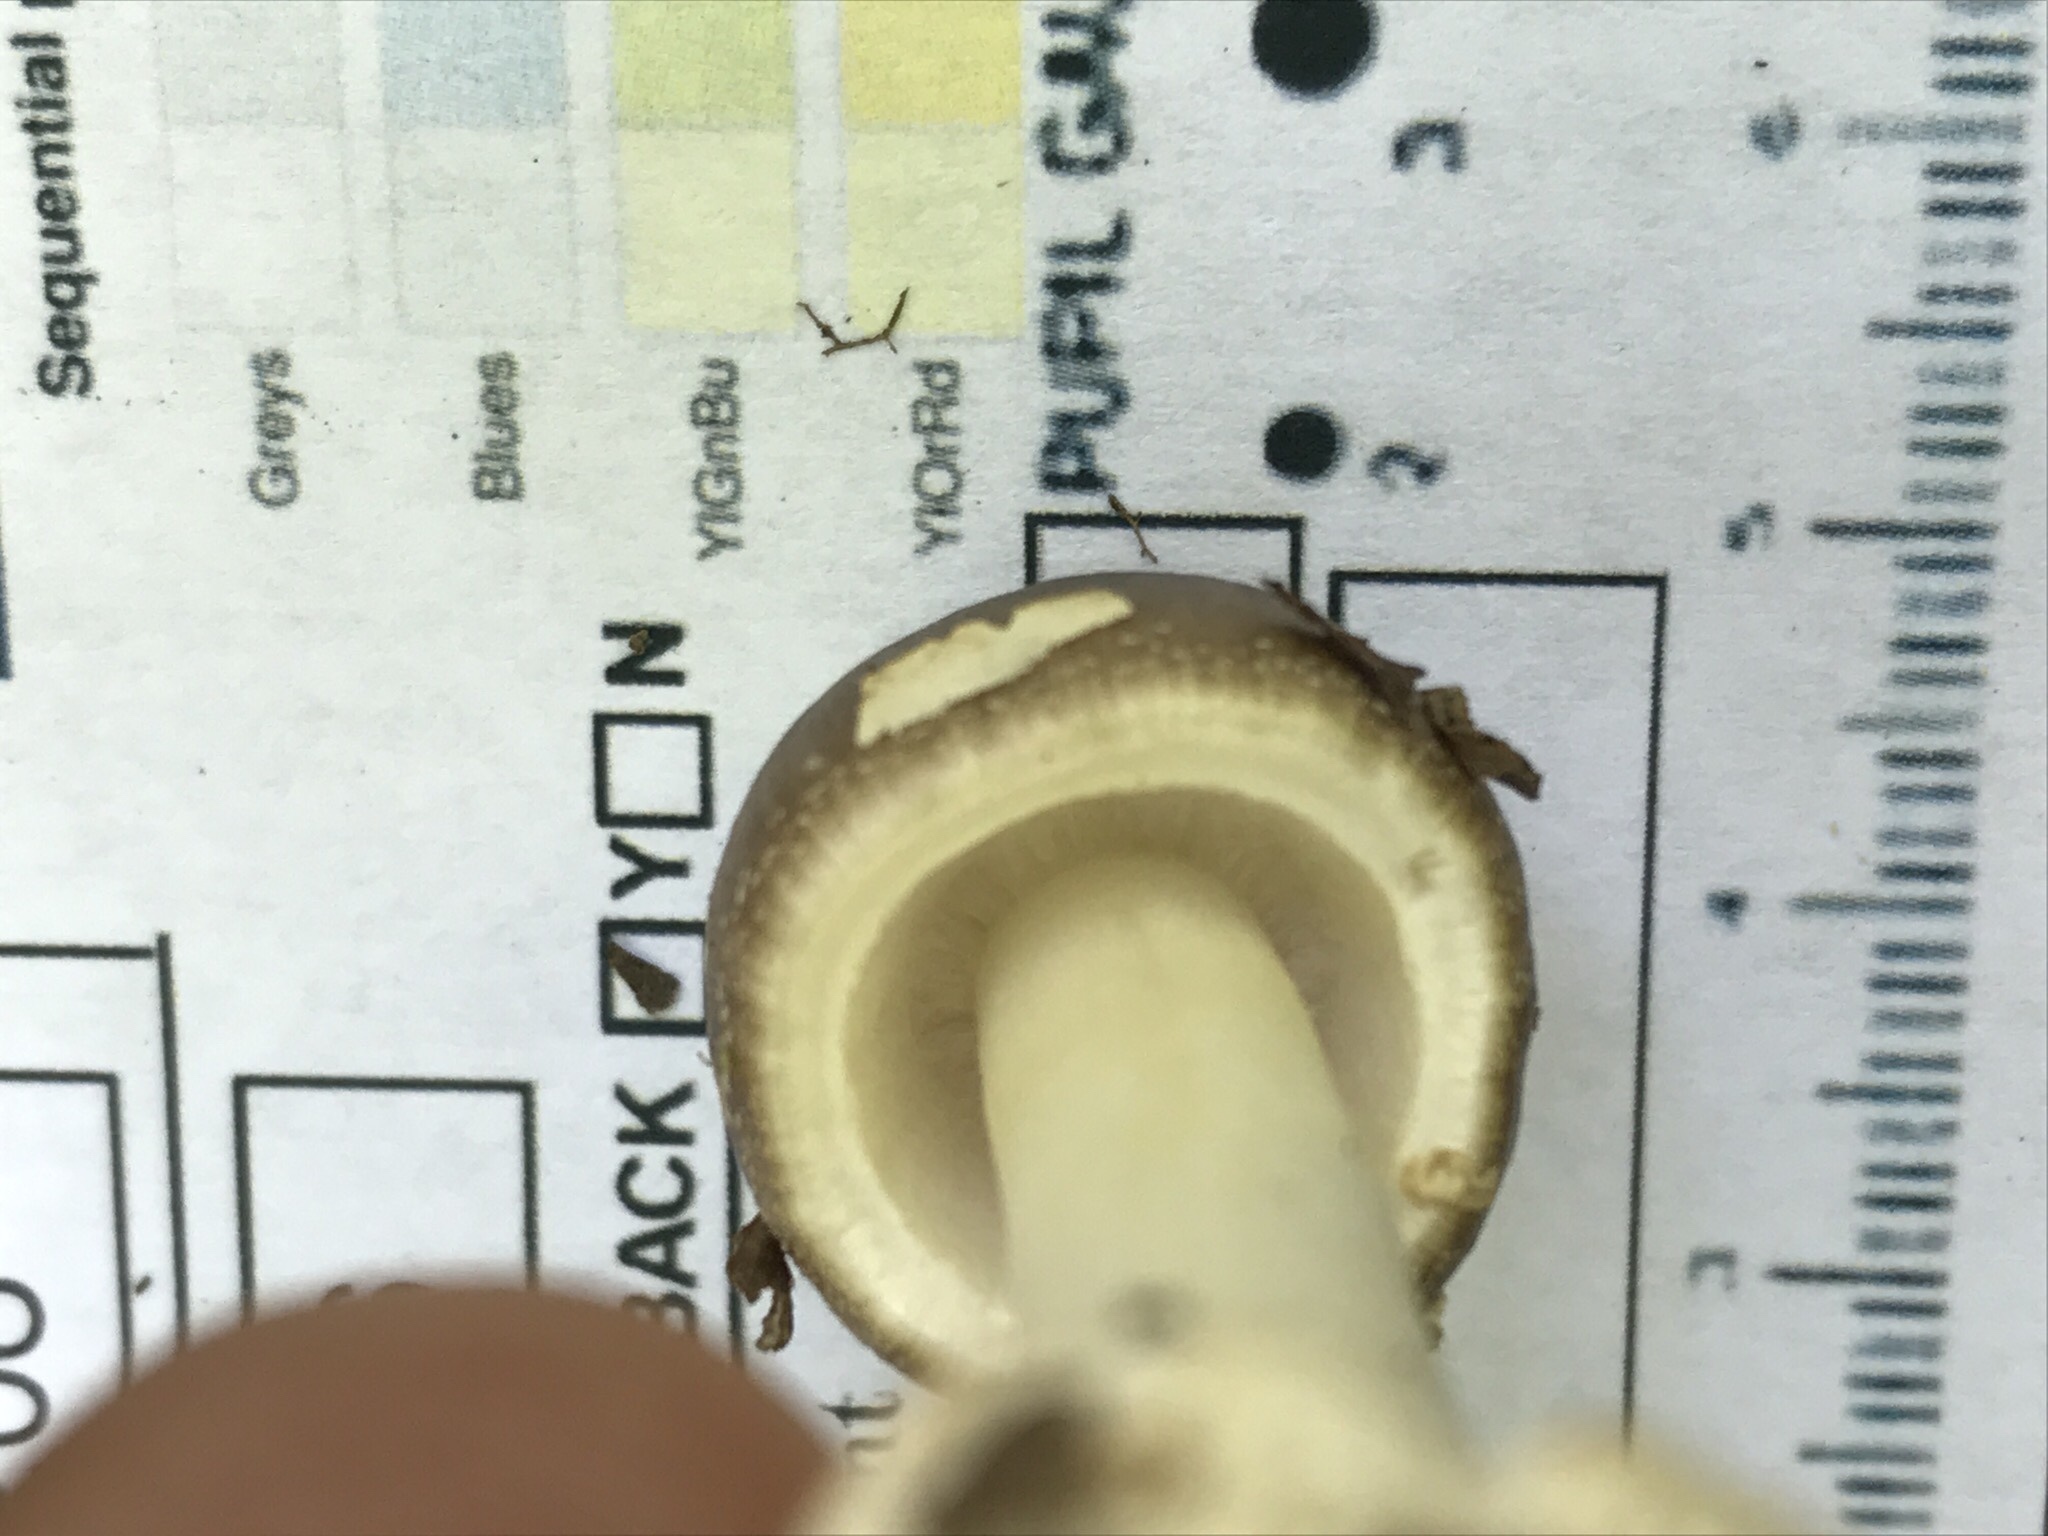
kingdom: Fungi
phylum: Basidiomycota
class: Agaricomycetes
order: Agaricales
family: Amanitaceae
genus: Amanita
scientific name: Amanita brunnescens
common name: Brown american star-footed amanita
